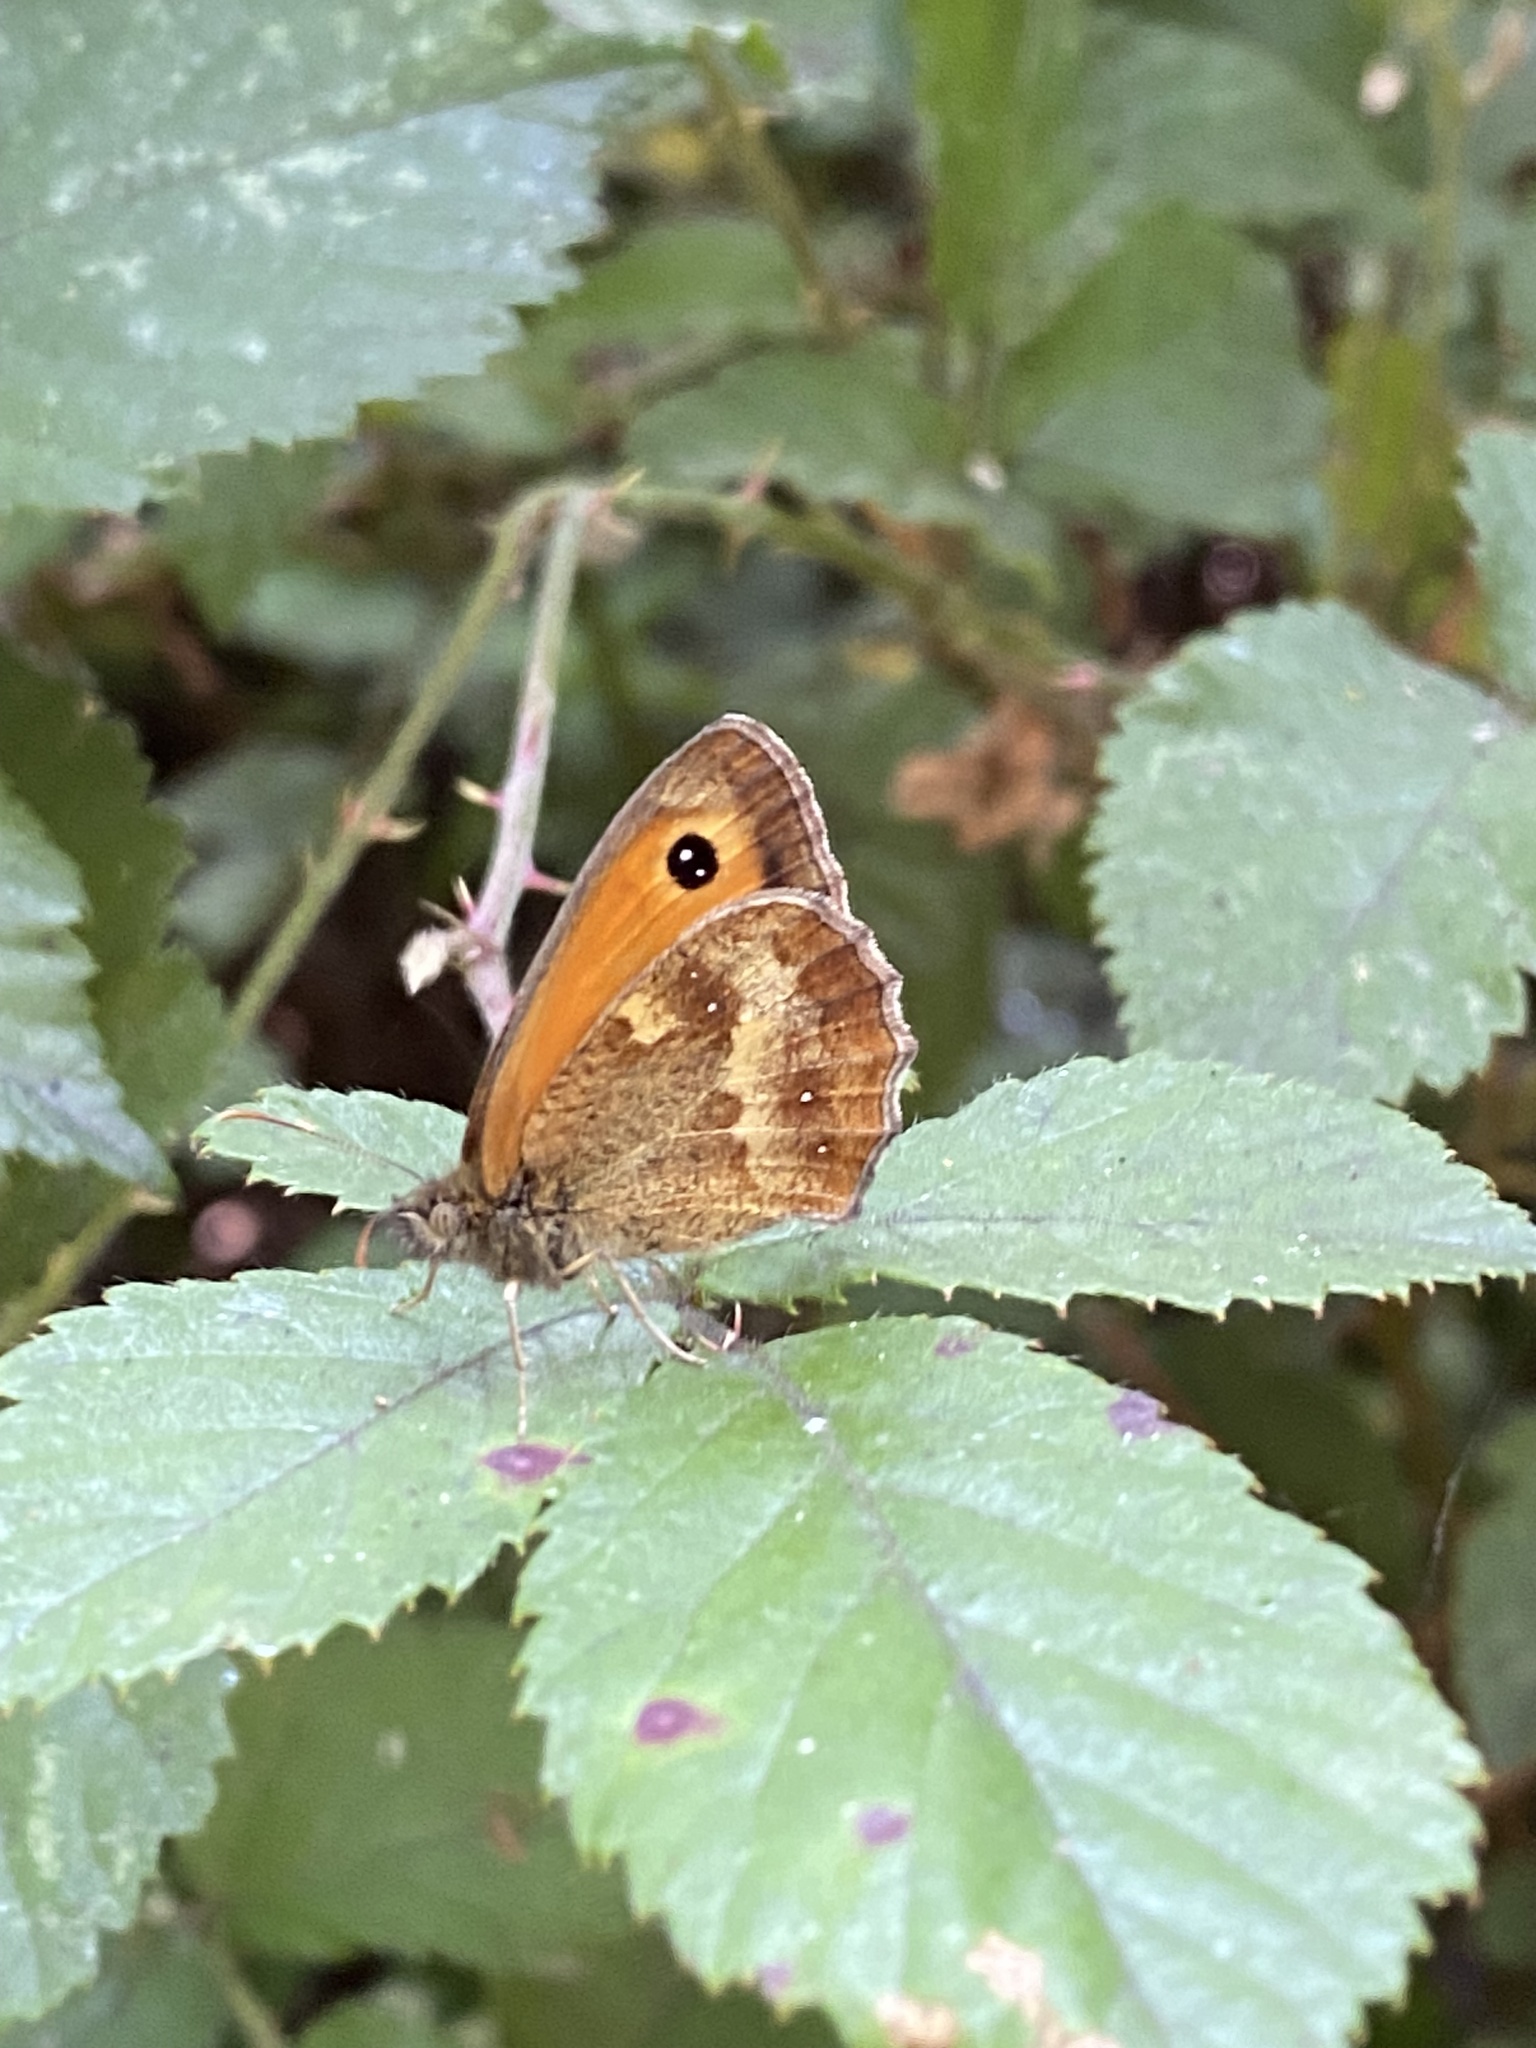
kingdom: Animalia
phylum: Arthropoda
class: Insecta
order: Lepidoptera
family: Nymphalidae
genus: Pyronia
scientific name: Pyronia tithonus
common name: Gatekeeper
